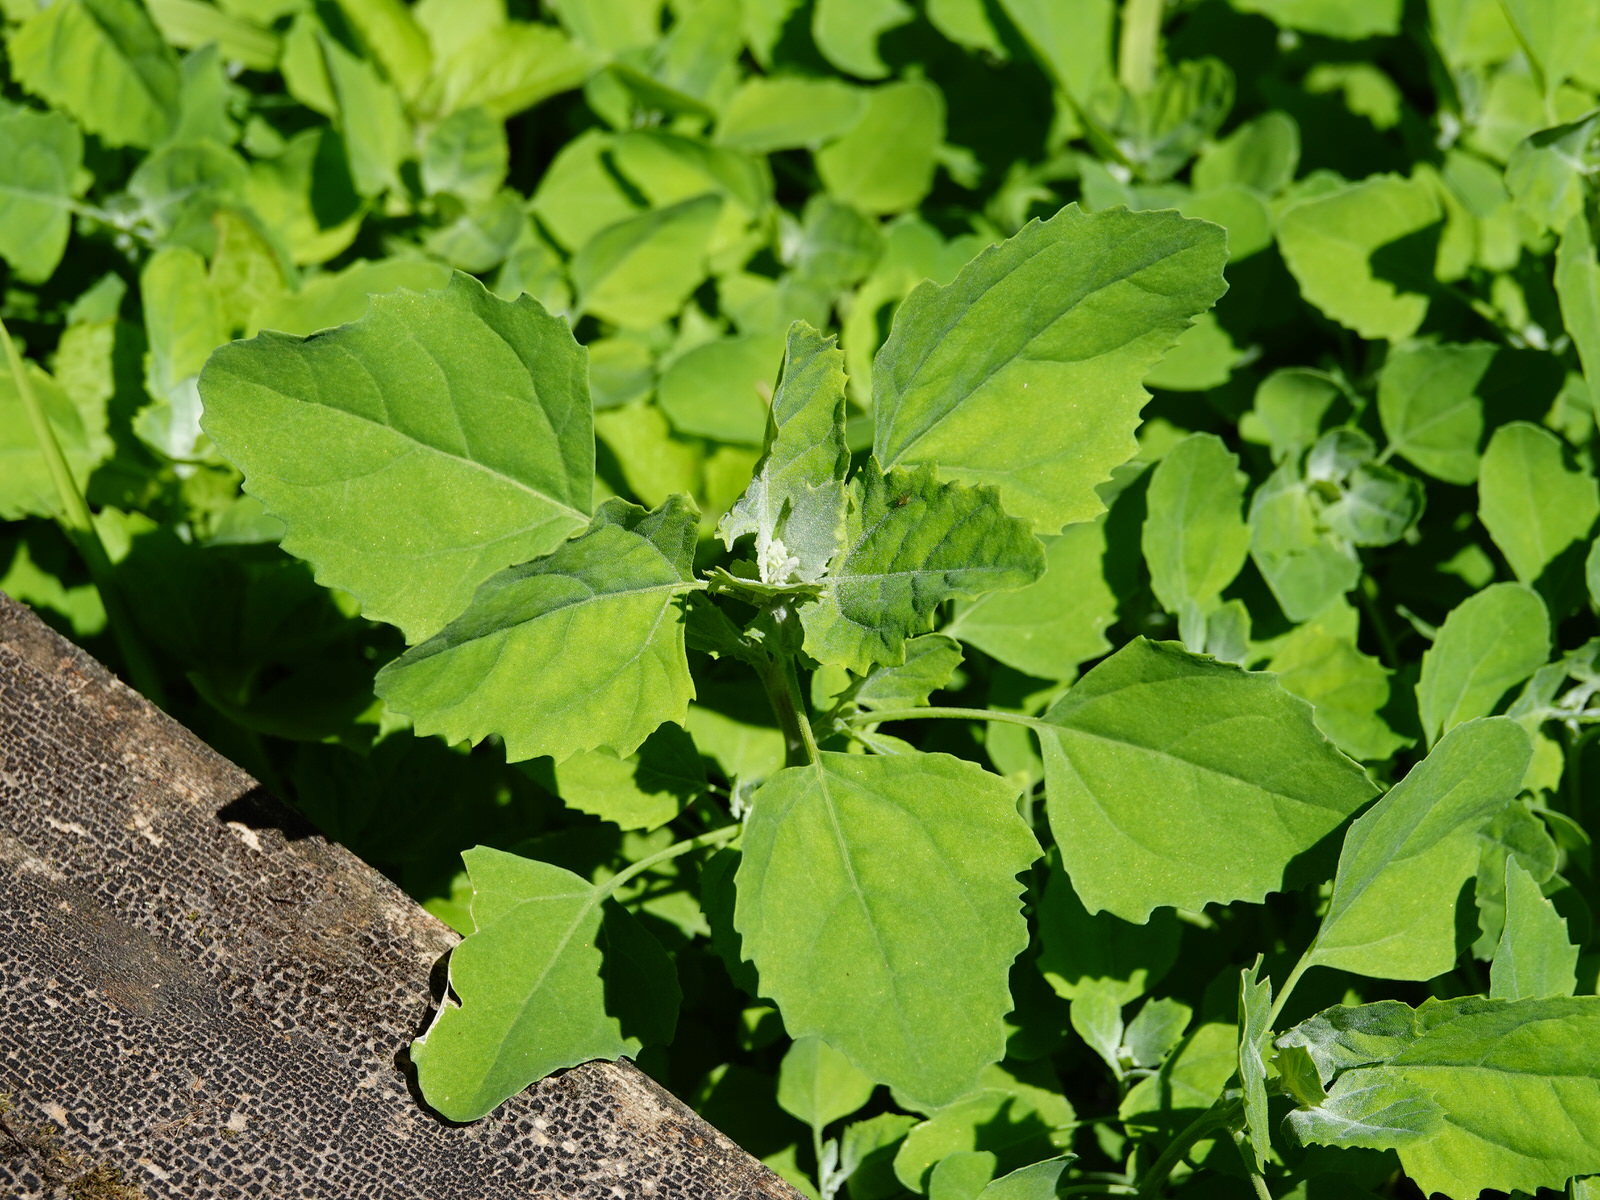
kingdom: Plantae
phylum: Tracheophyta
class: Magnoliopsida
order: Caryophyllales
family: Amaranthaceae
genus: Chenopodium
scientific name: Chenopodium album
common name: Fat-hen
